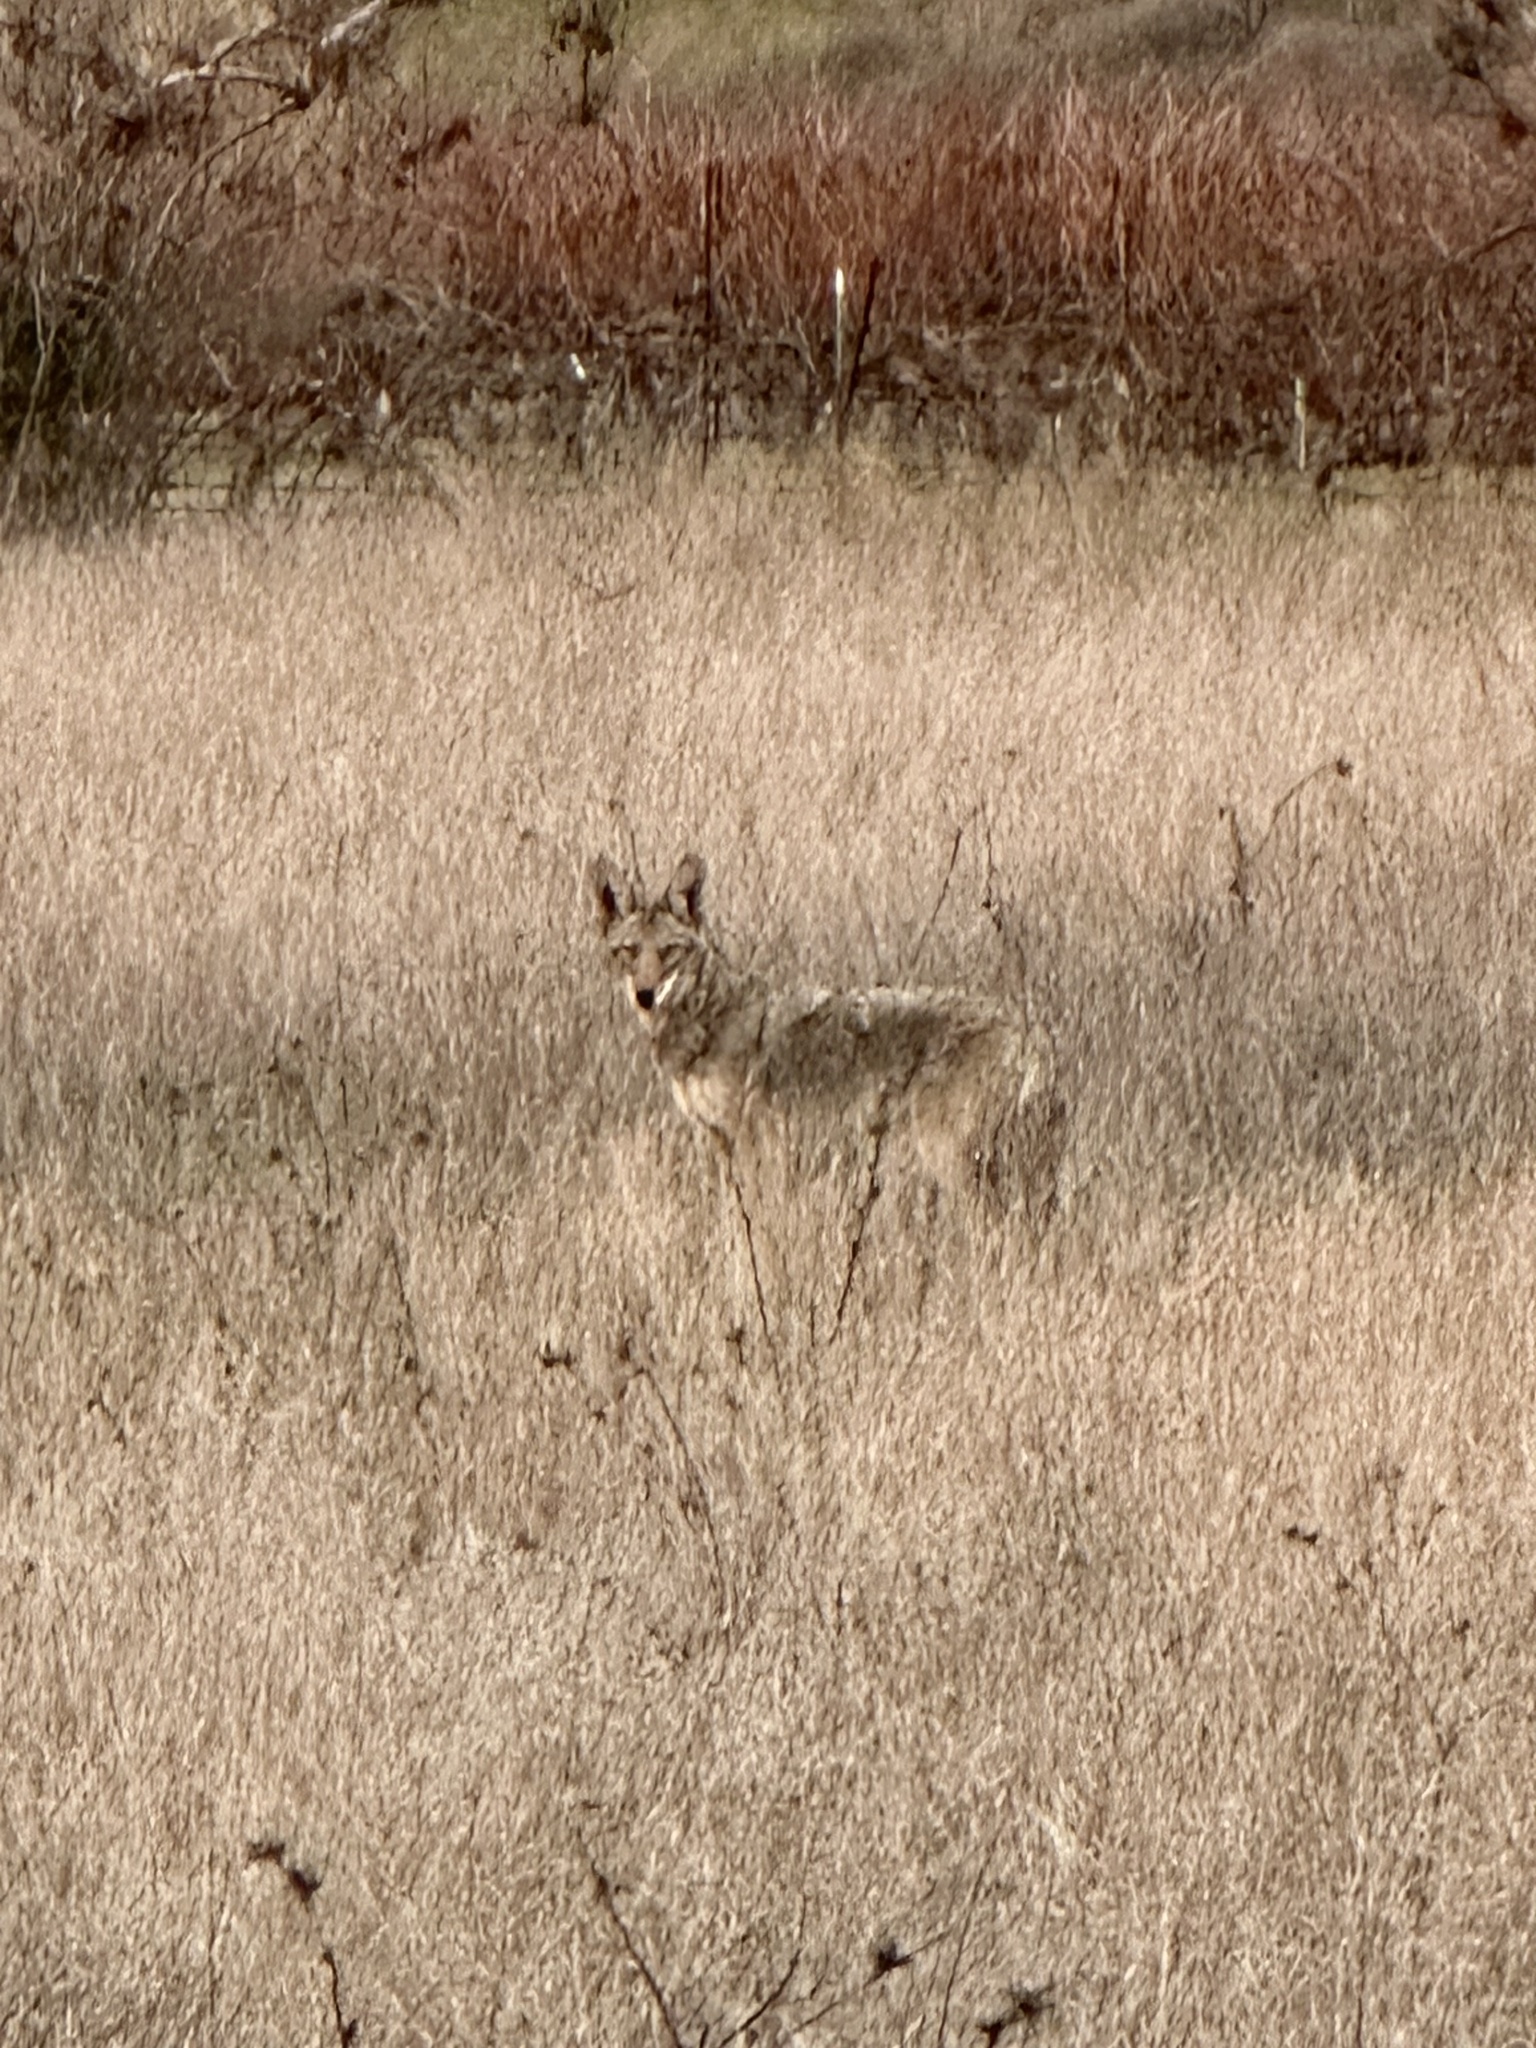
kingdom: Animalia
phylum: Chordata
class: Mammalia
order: Carnivora
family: Canidae
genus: Canis
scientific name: Canis latrans
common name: Coyote
